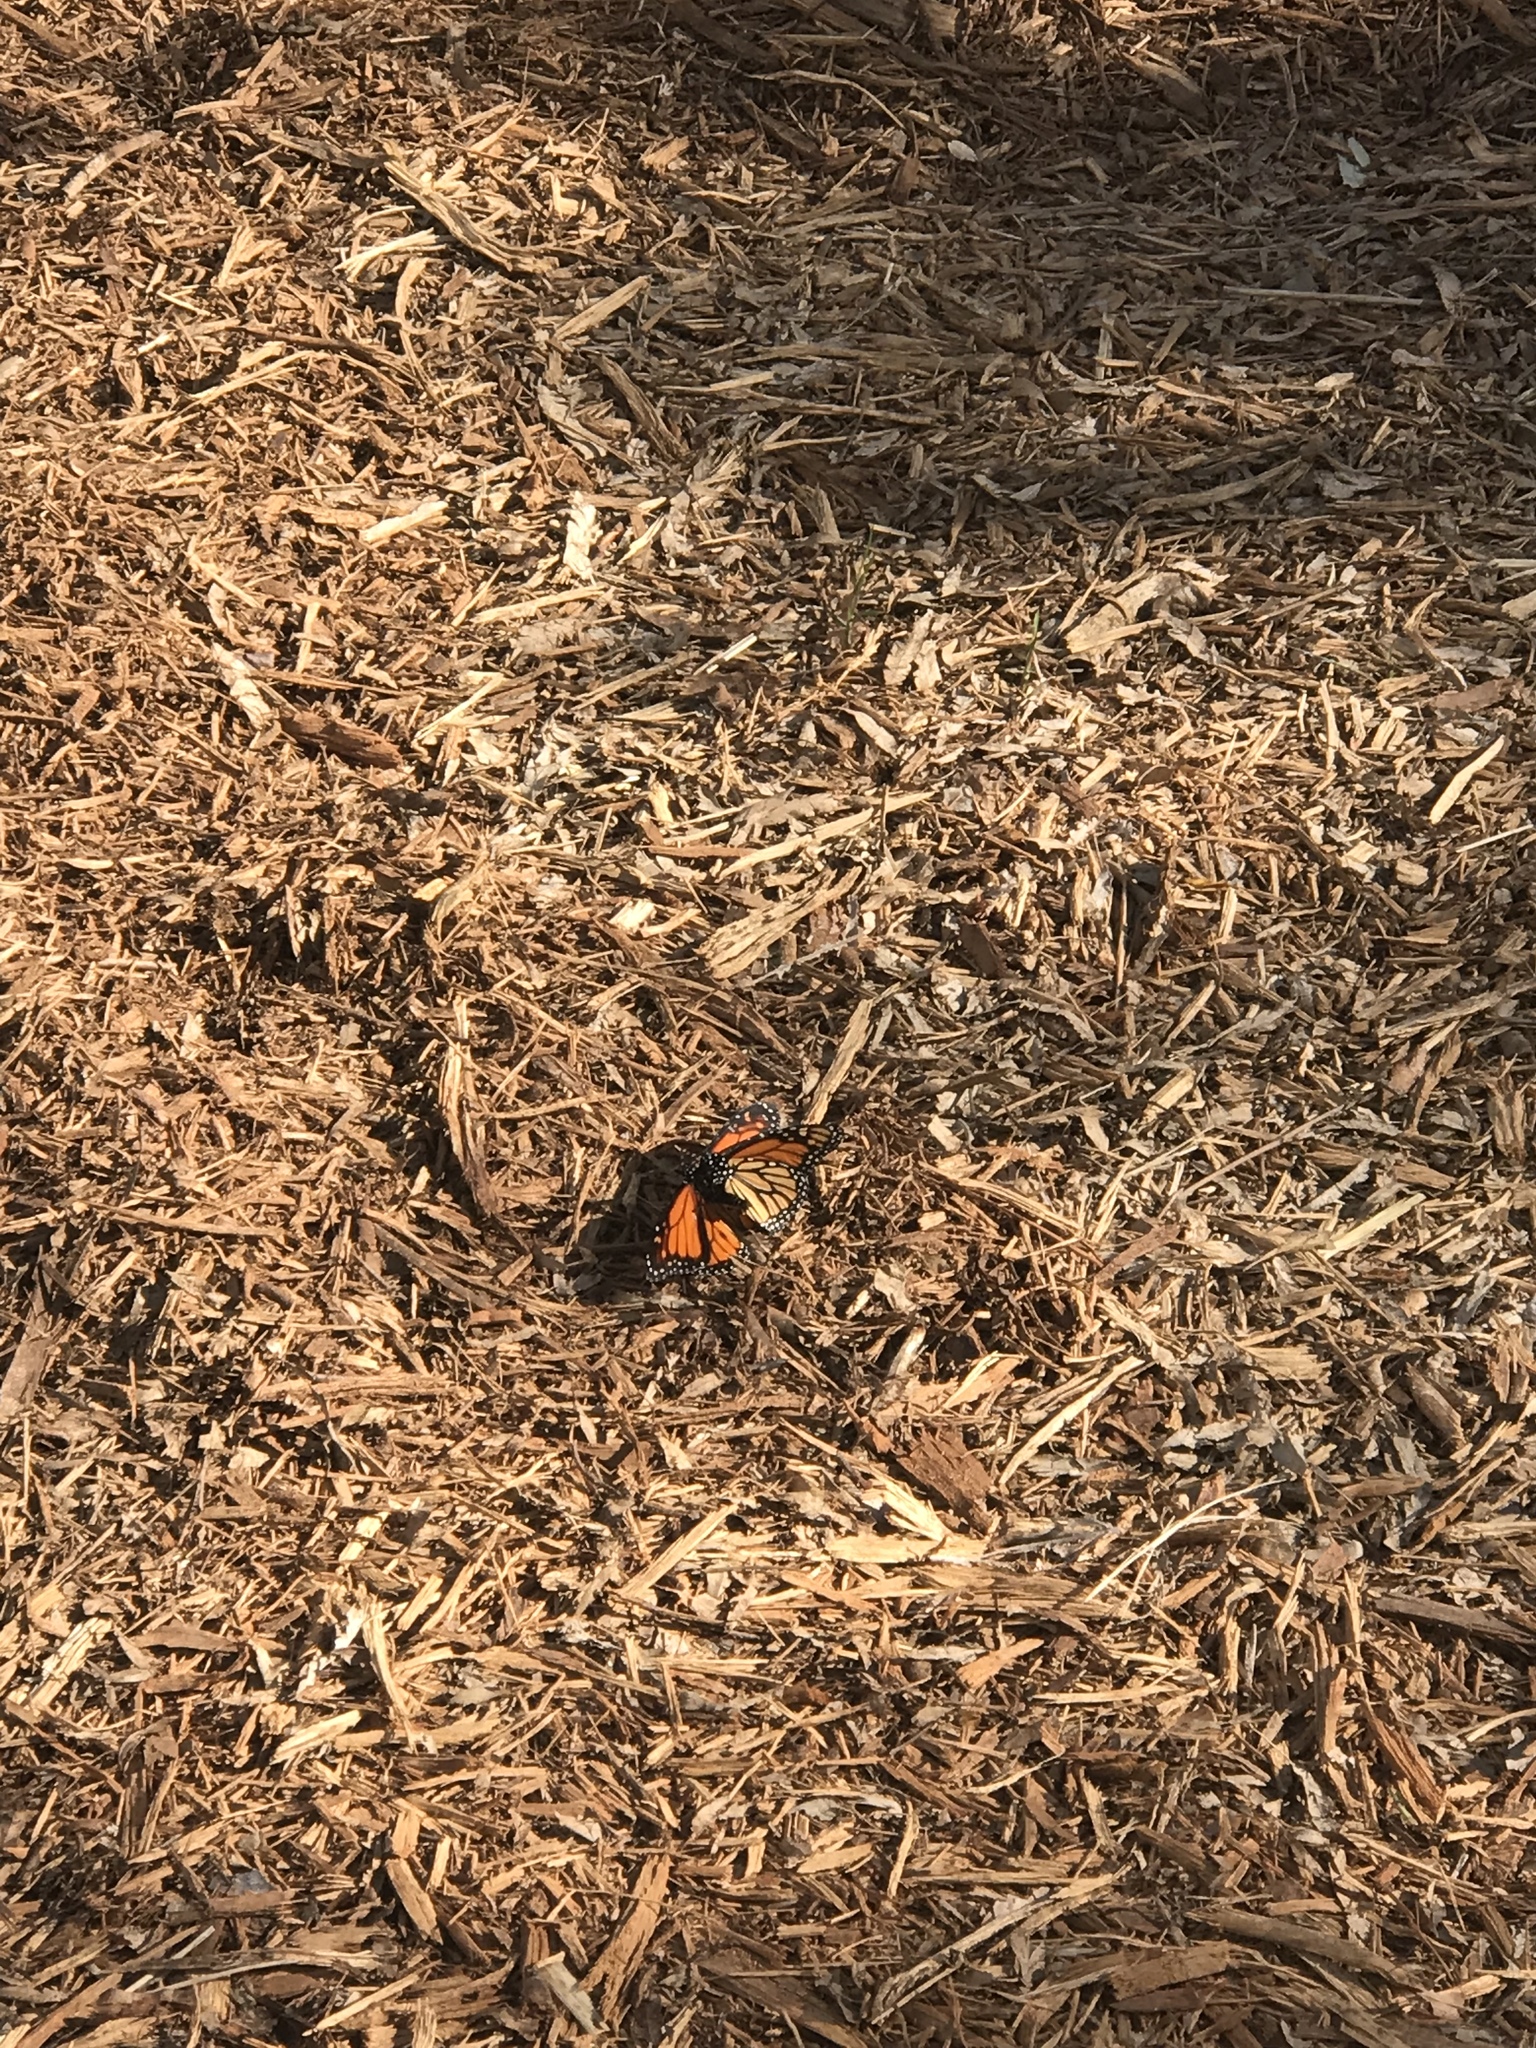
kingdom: Animalia
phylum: Arthropoda
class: Insecta
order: Lepidoptera
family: Nymphalidae
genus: Danaus
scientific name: Danaus plexippus
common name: Monarch
